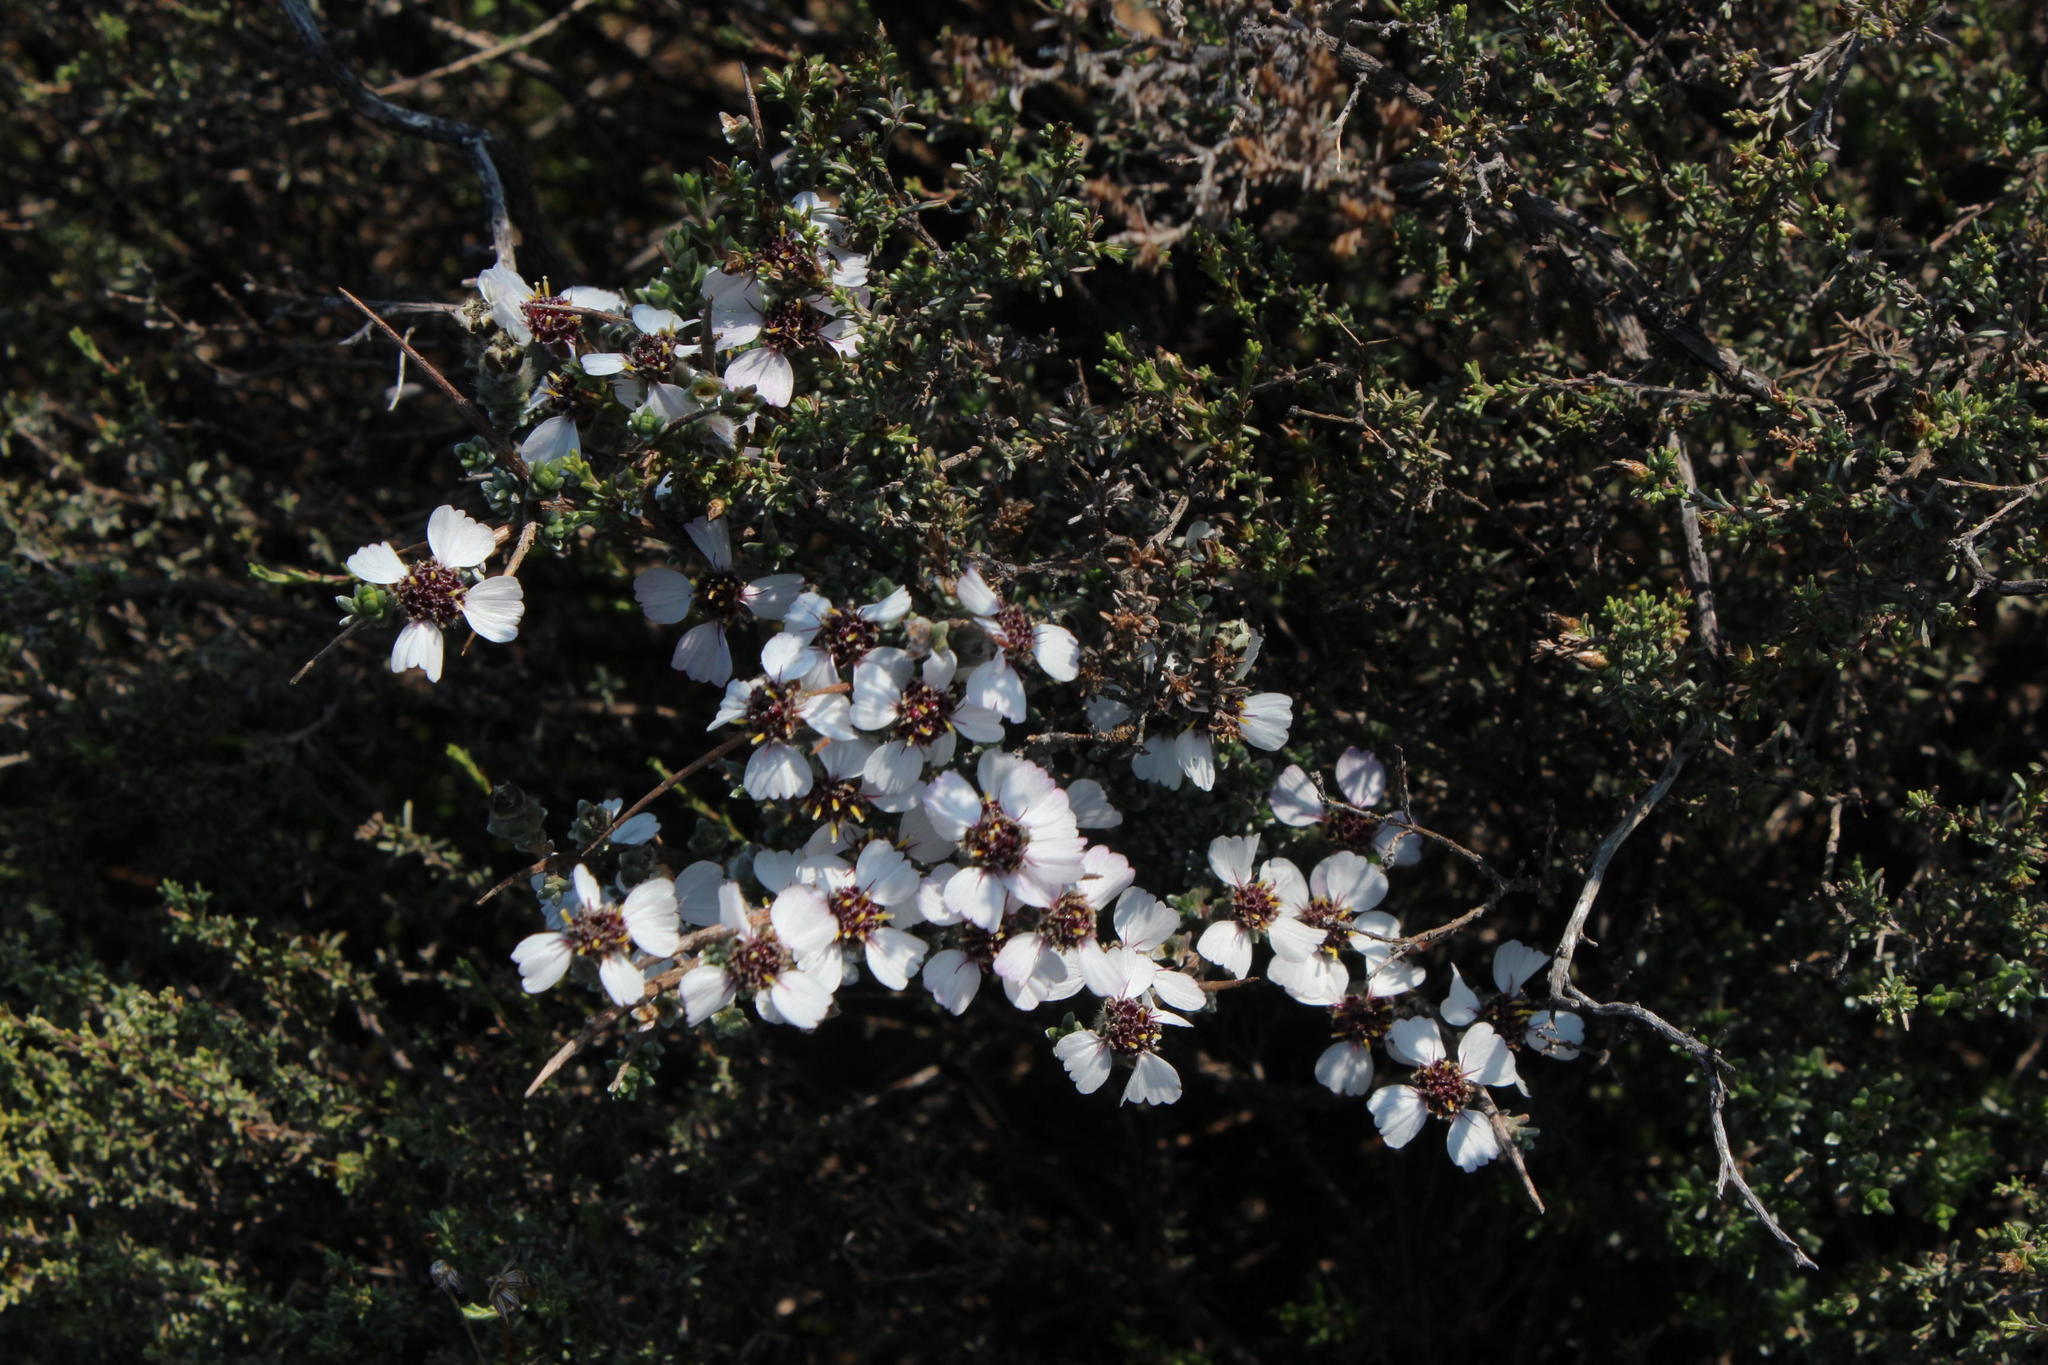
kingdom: Plantae
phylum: Tracheophyta
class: Magnoliopsida
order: Asterales
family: Asteraceae
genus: Eriocephalus
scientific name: Eriocephalus grandiflorus
